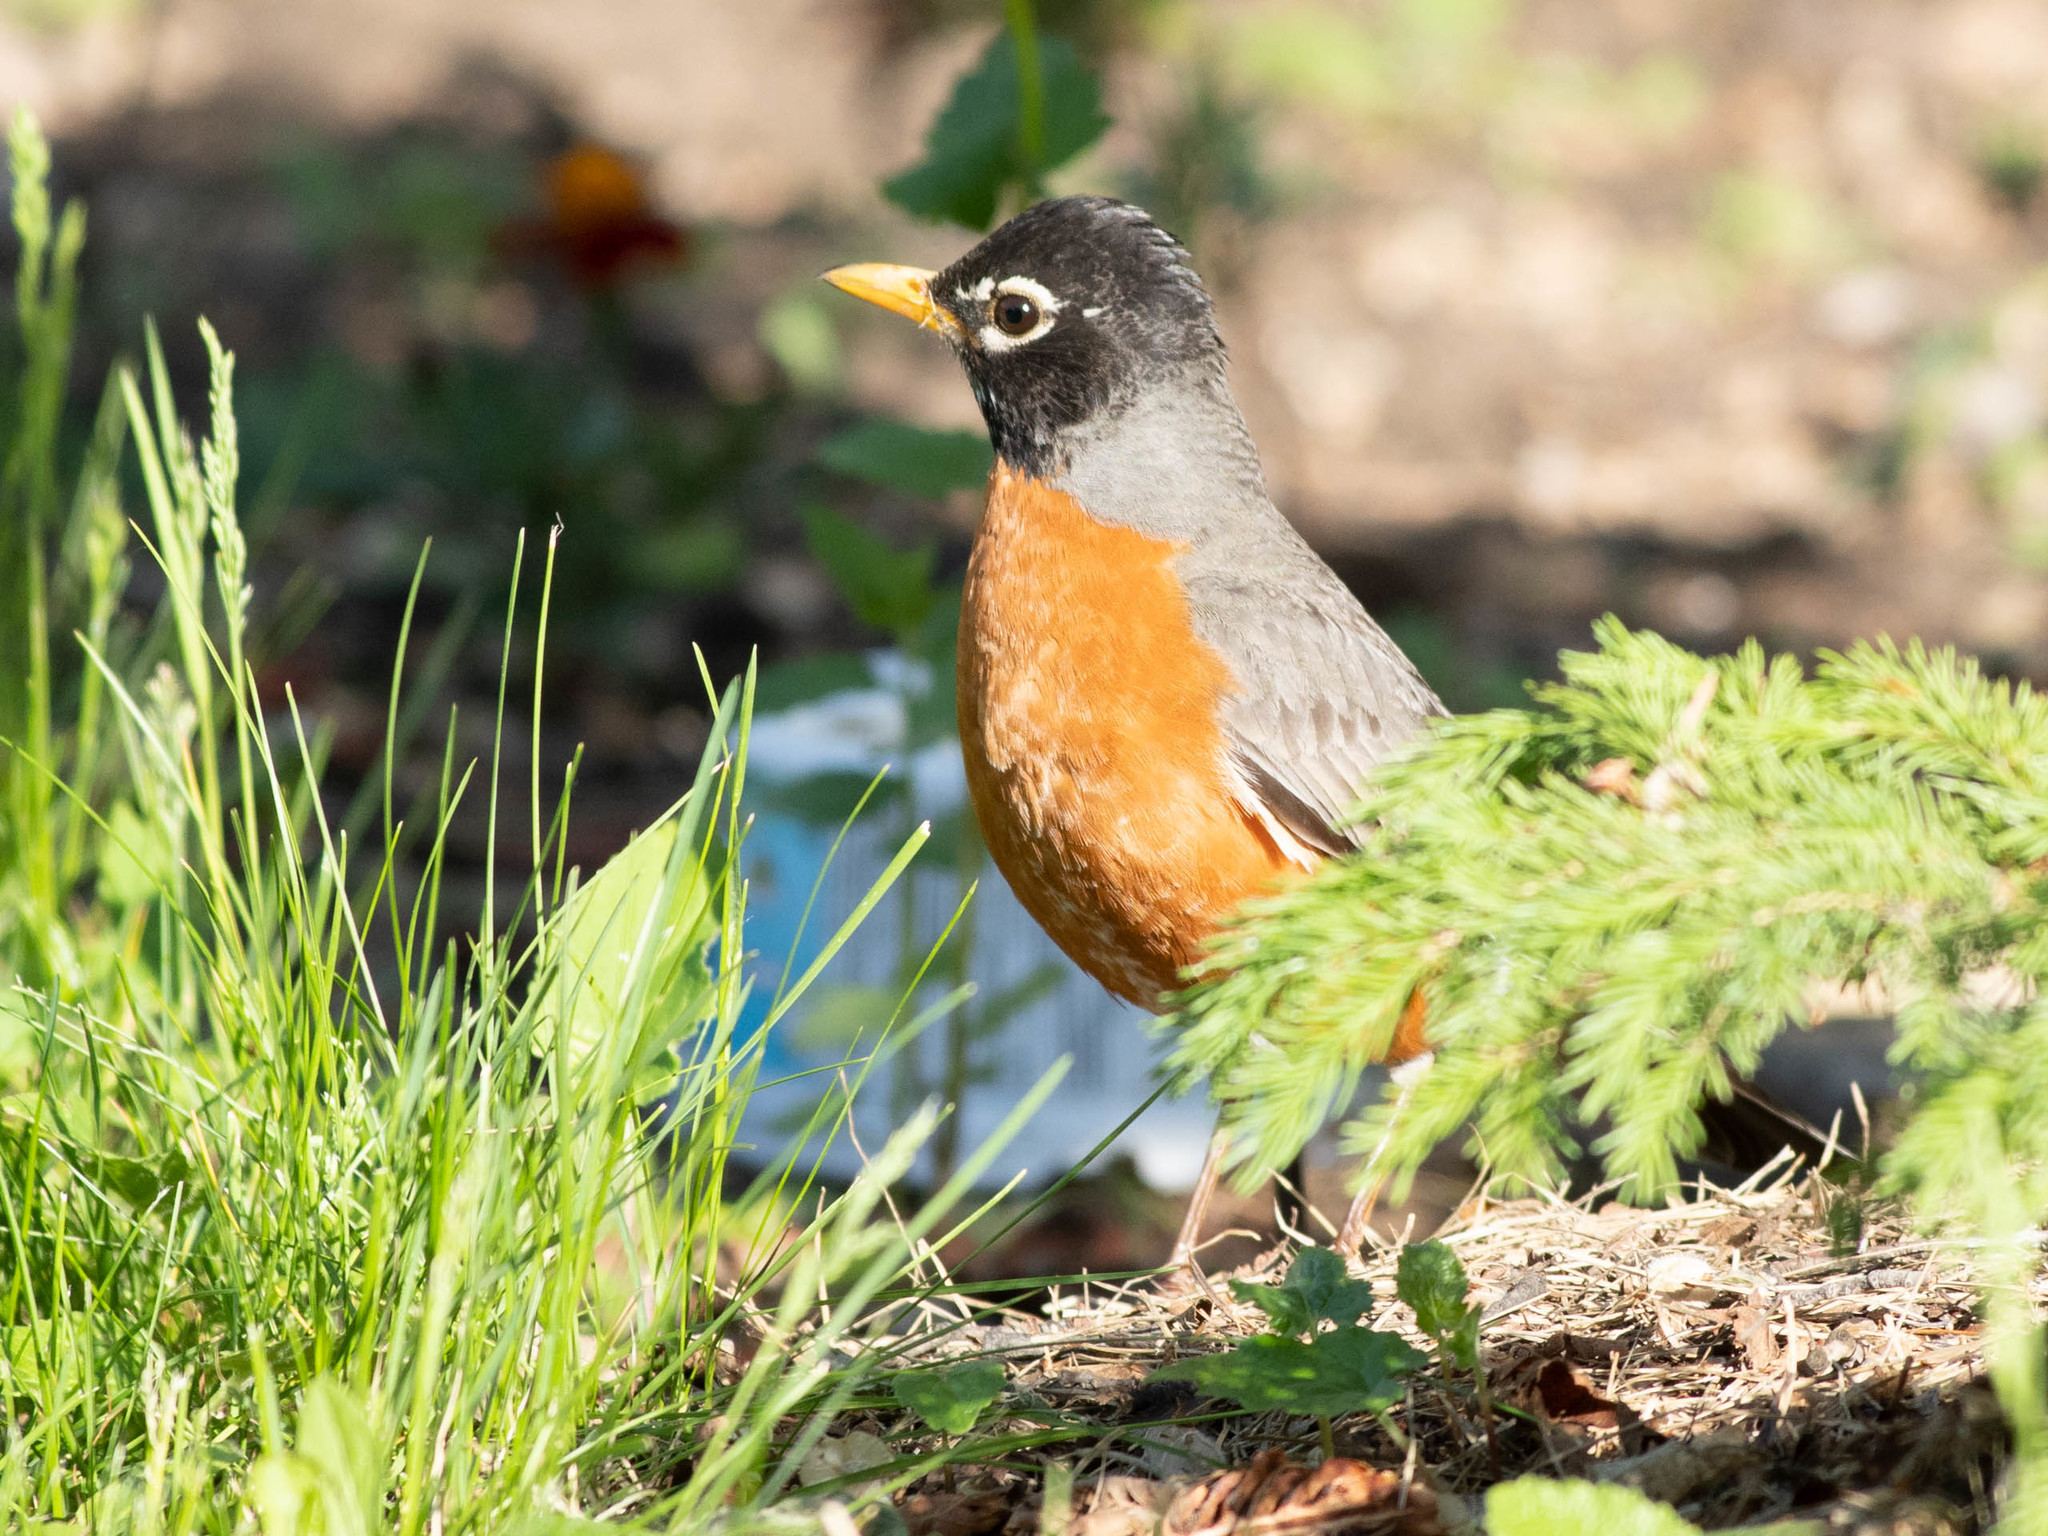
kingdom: Animalia
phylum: Chordata
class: Aves
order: Passeriformes
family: Turdidae
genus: Turdus
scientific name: Turdus migratorius
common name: American robin
